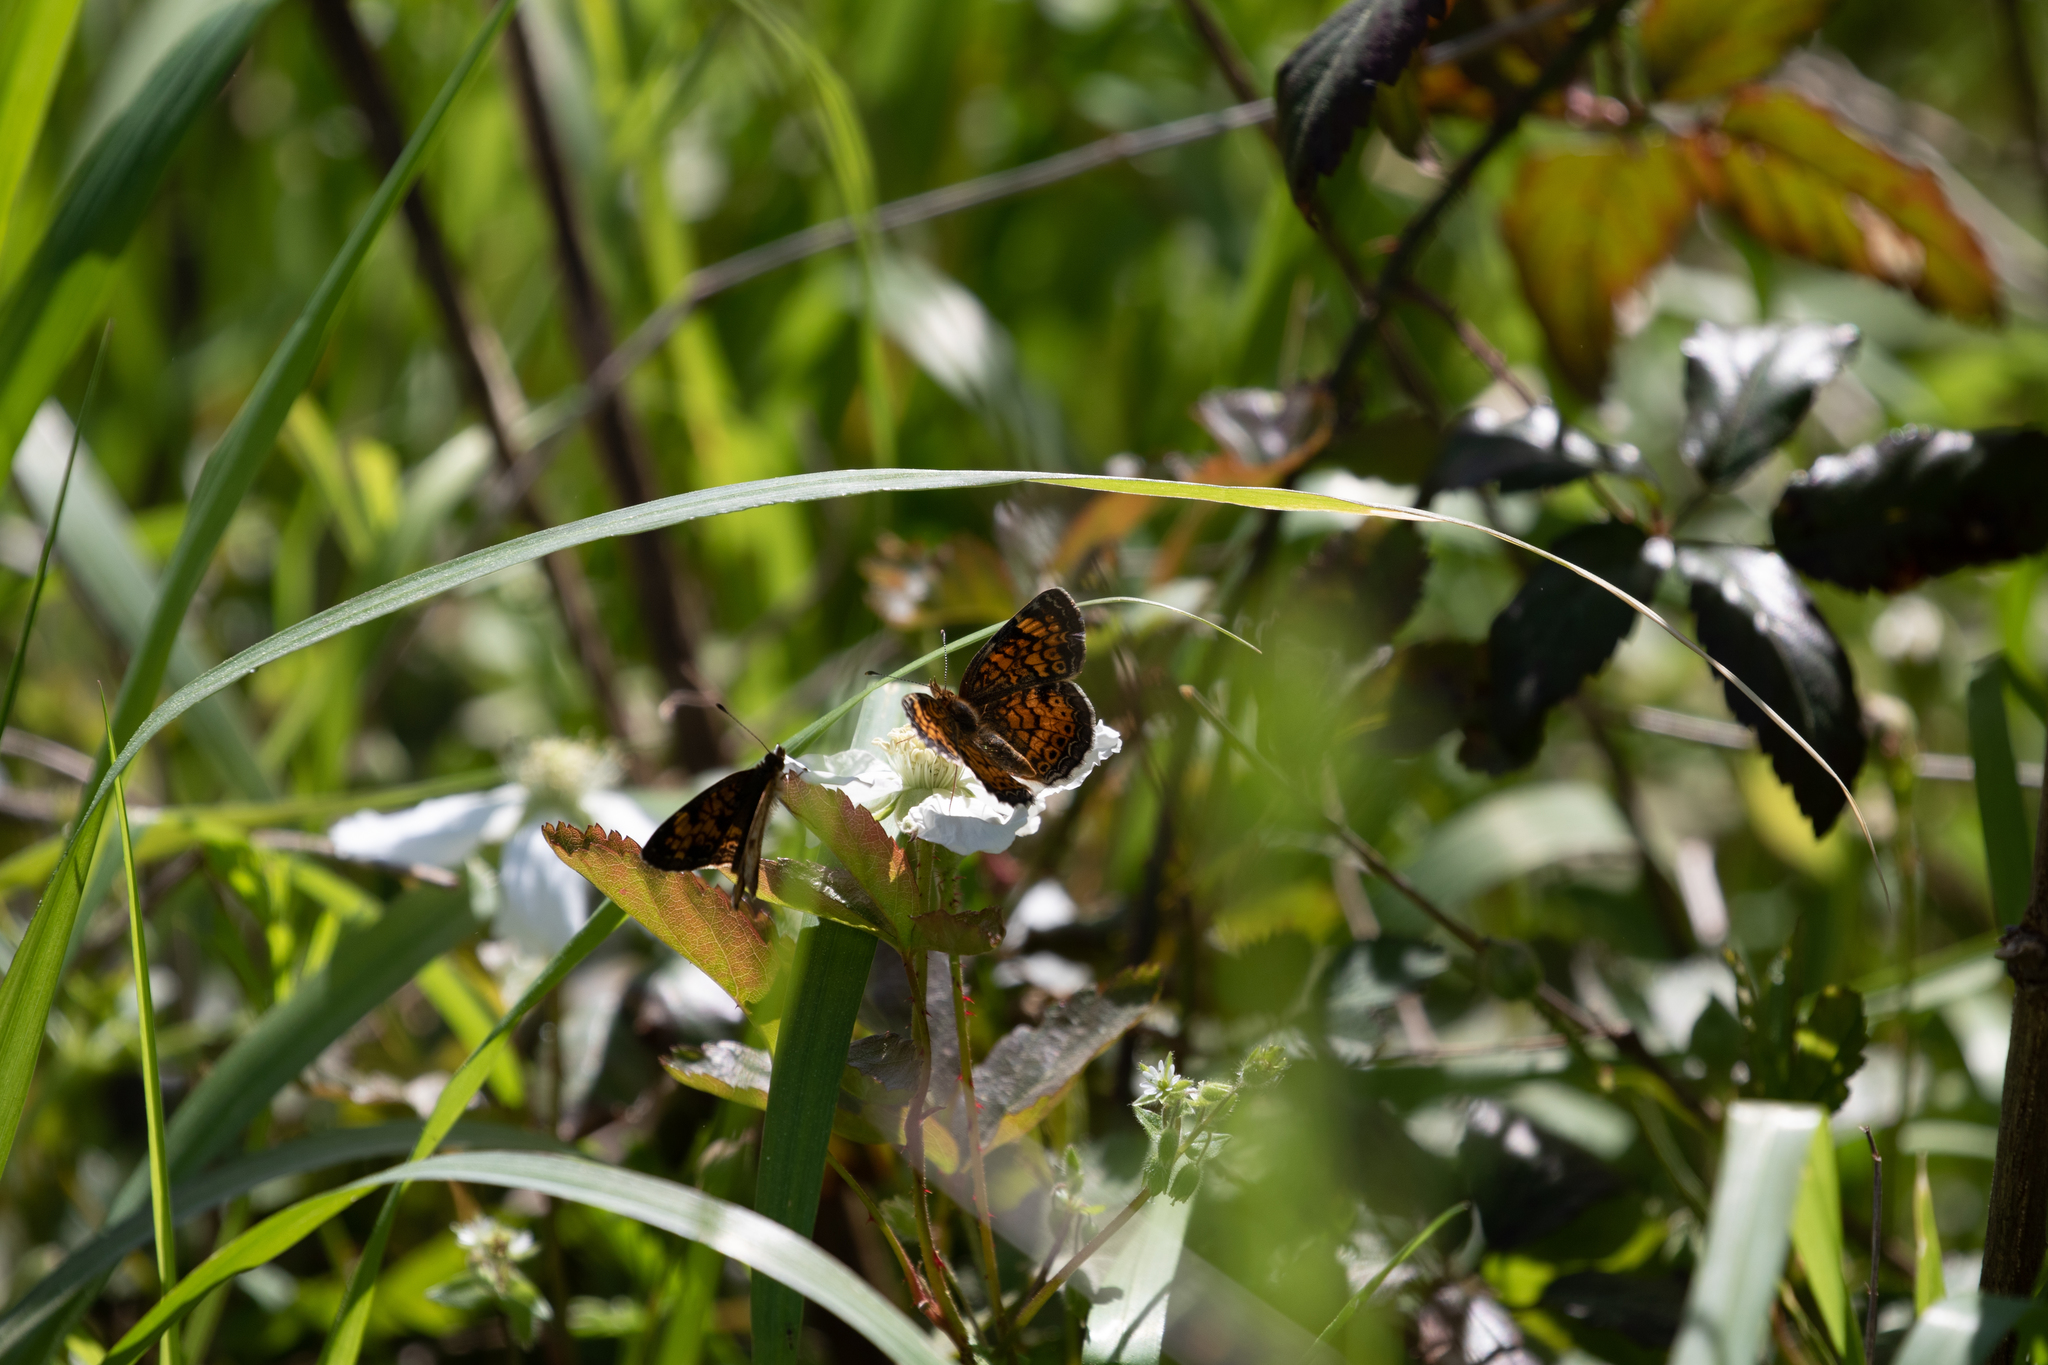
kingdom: Animalia
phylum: Arthropoda
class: Insecta
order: Lepidoptera
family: Nymphalidae
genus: Phyciodes
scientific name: Phyciodes tharos
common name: Pearl crescent
